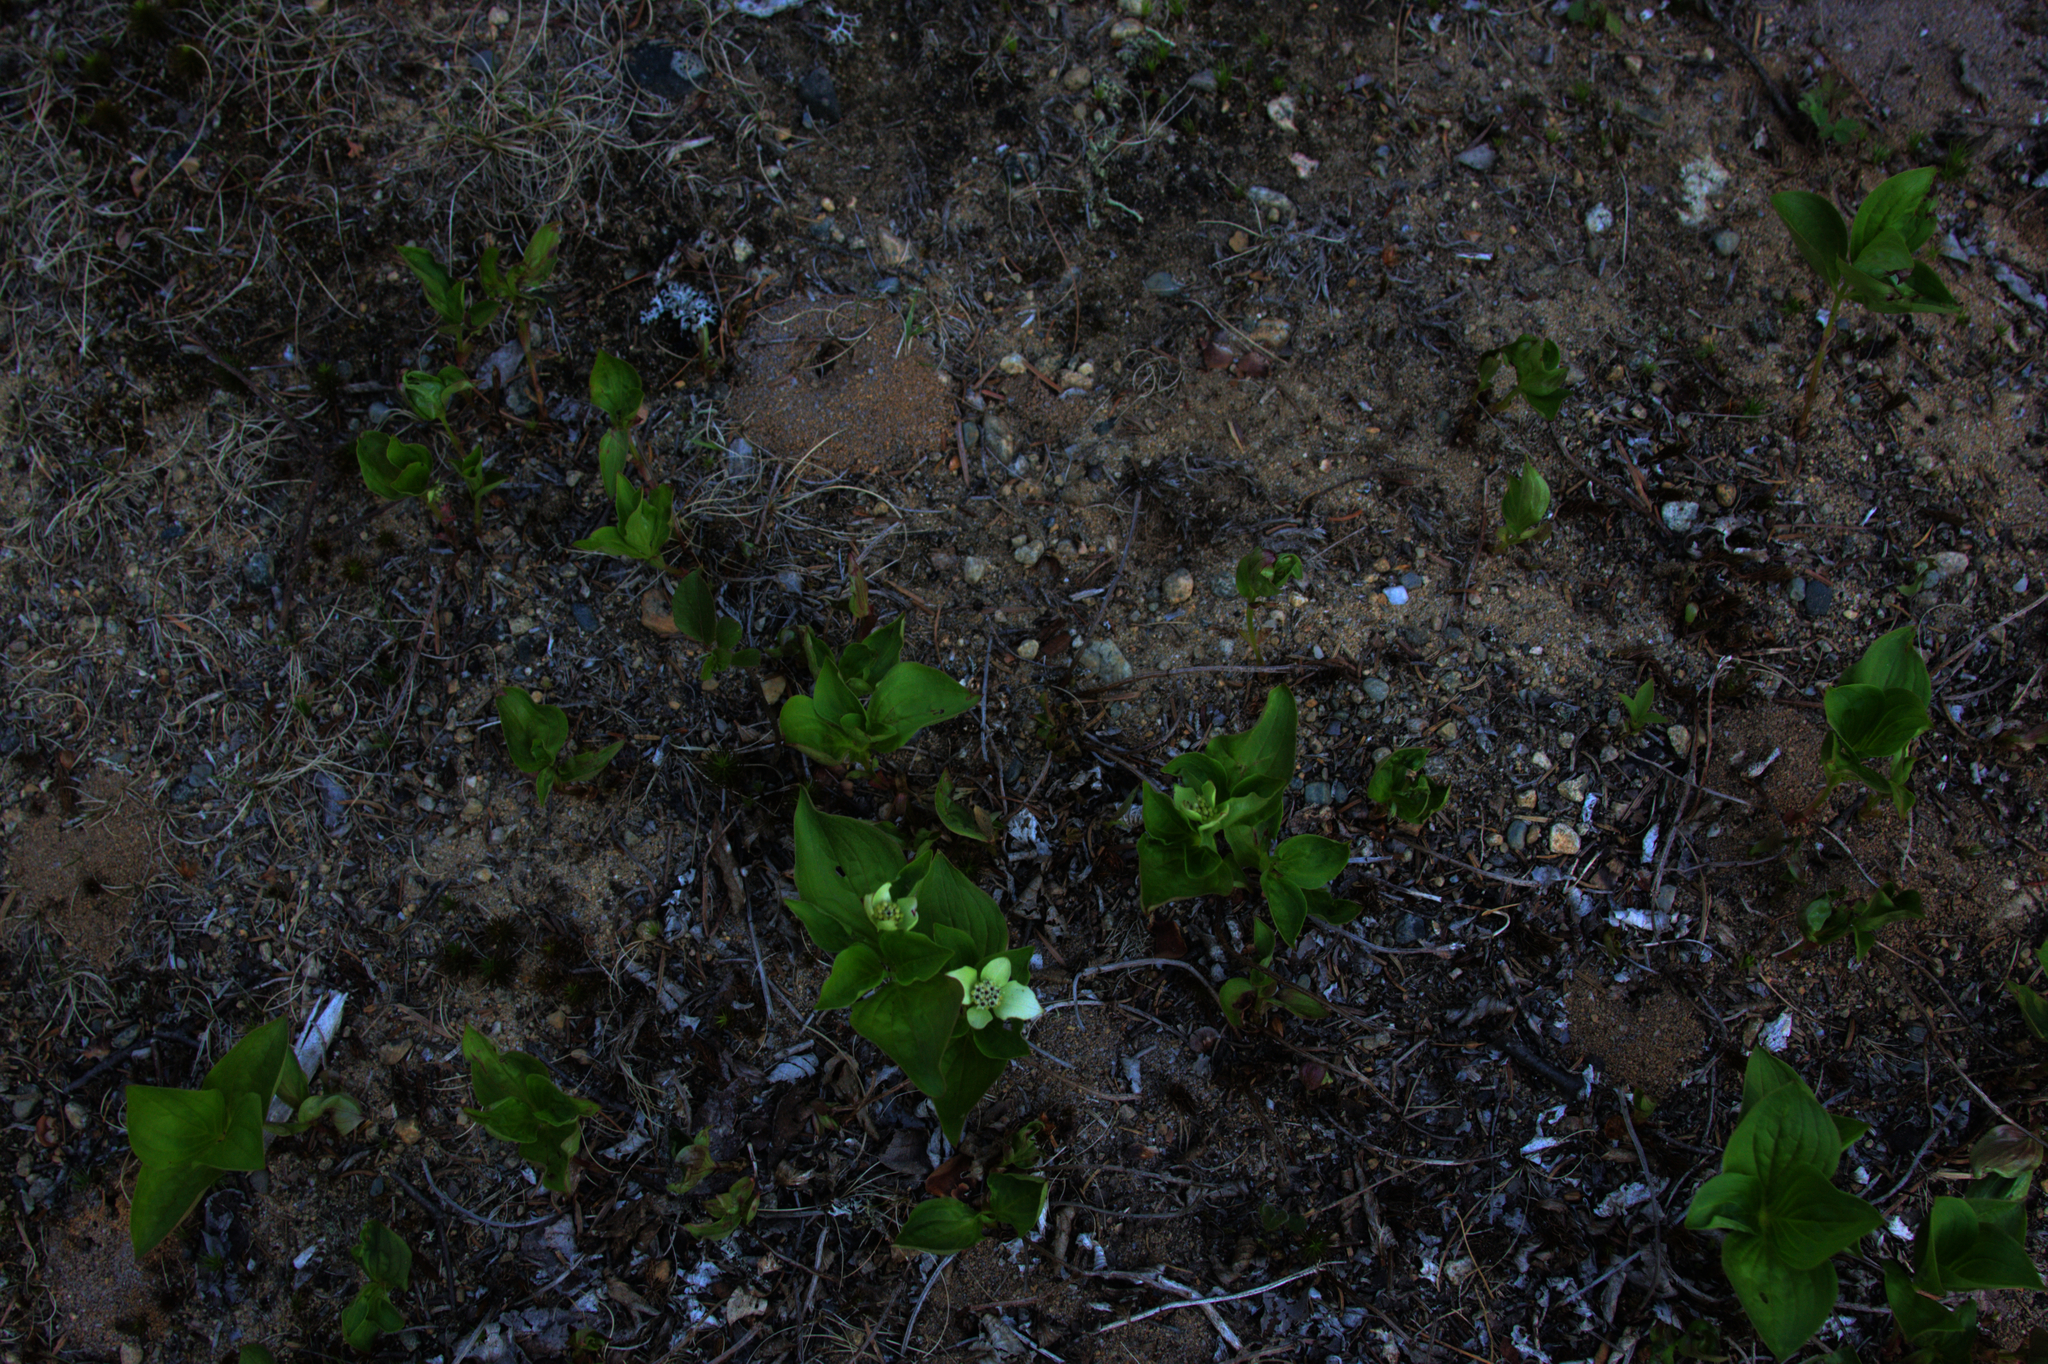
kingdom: Plantae
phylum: Tracheophyta
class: Magnoliopsida
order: Cornales
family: Cornaceae
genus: Cornus
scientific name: Cornus canadensis
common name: Creeping dogwood
